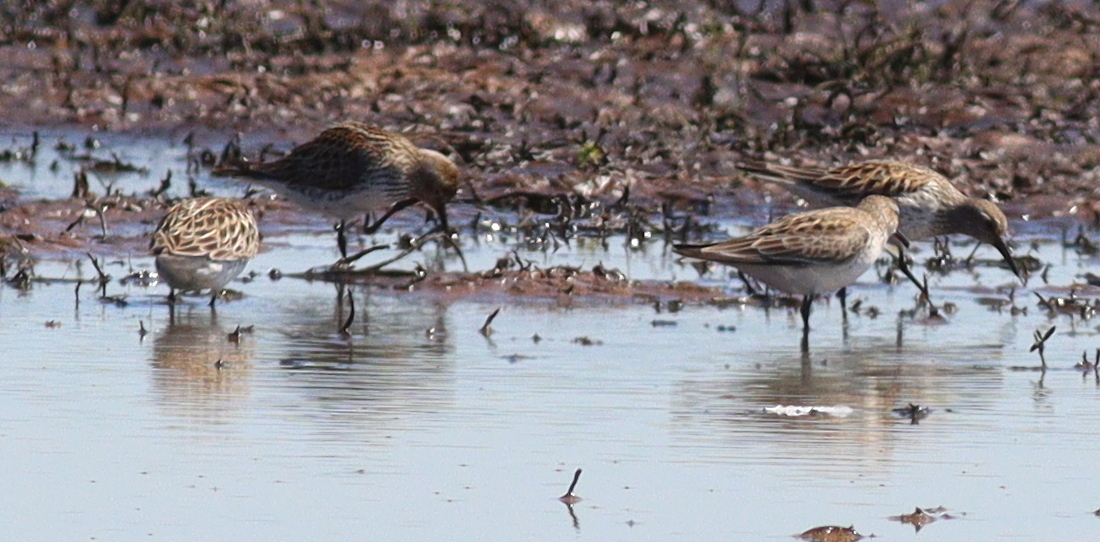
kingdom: Animalia
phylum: Chordata
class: Aves
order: Charadriiformes
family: Scolopacidae
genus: Calidris
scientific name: Calidris fuscicollis
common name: White-rumped sandpiper
